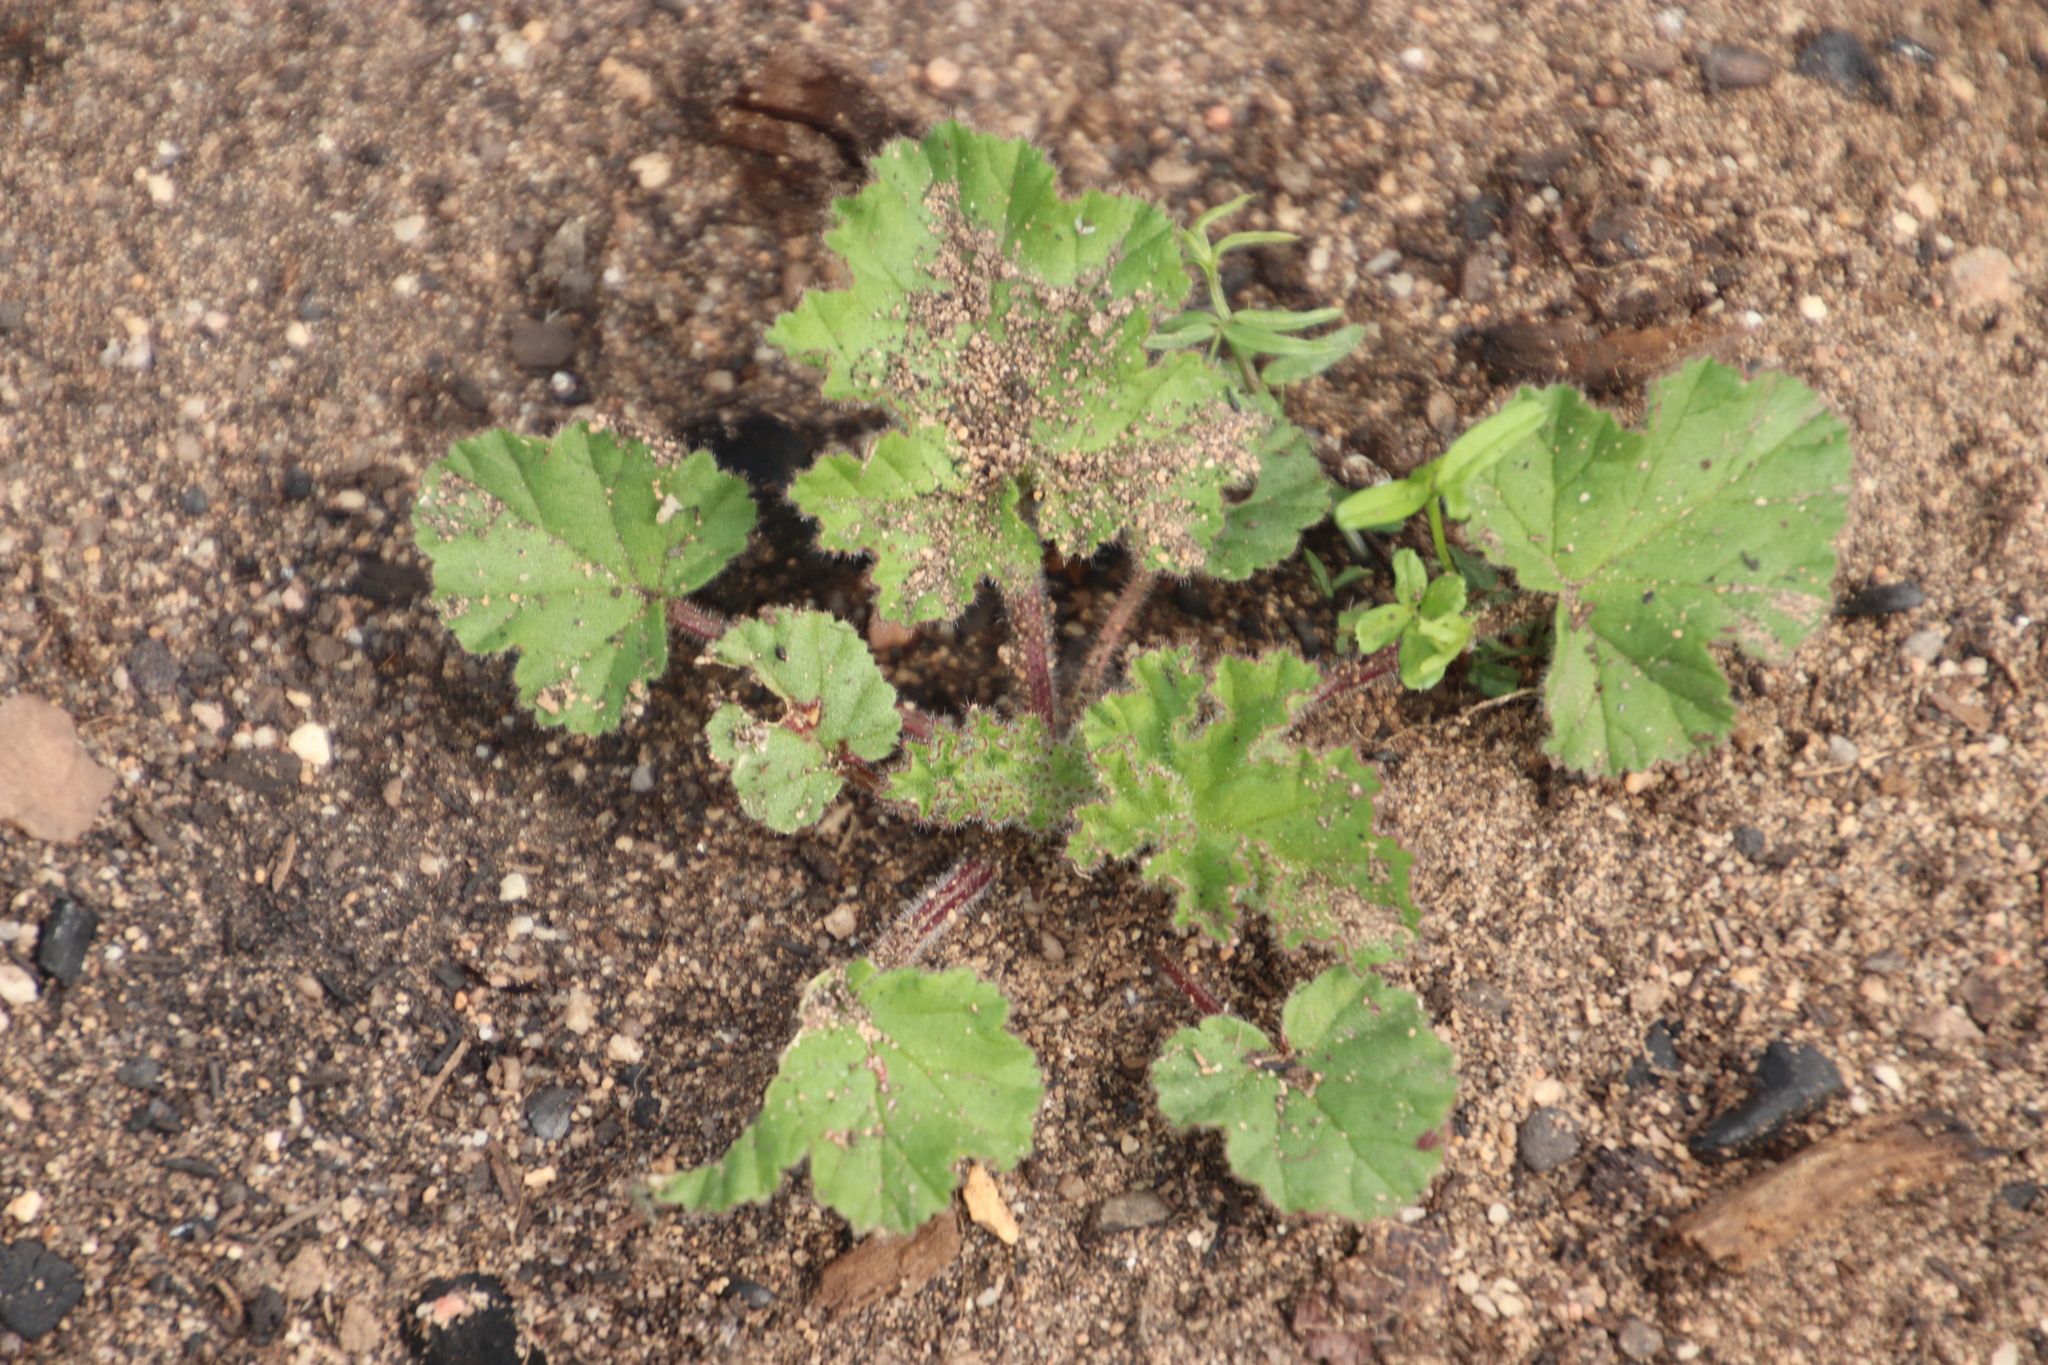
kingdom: Plantae
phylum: Tracheophyta
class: Magnoliopsida
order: Geraniales
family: Geraniaceae
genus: Pelargonium
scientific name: Pelargonium althaeoides
